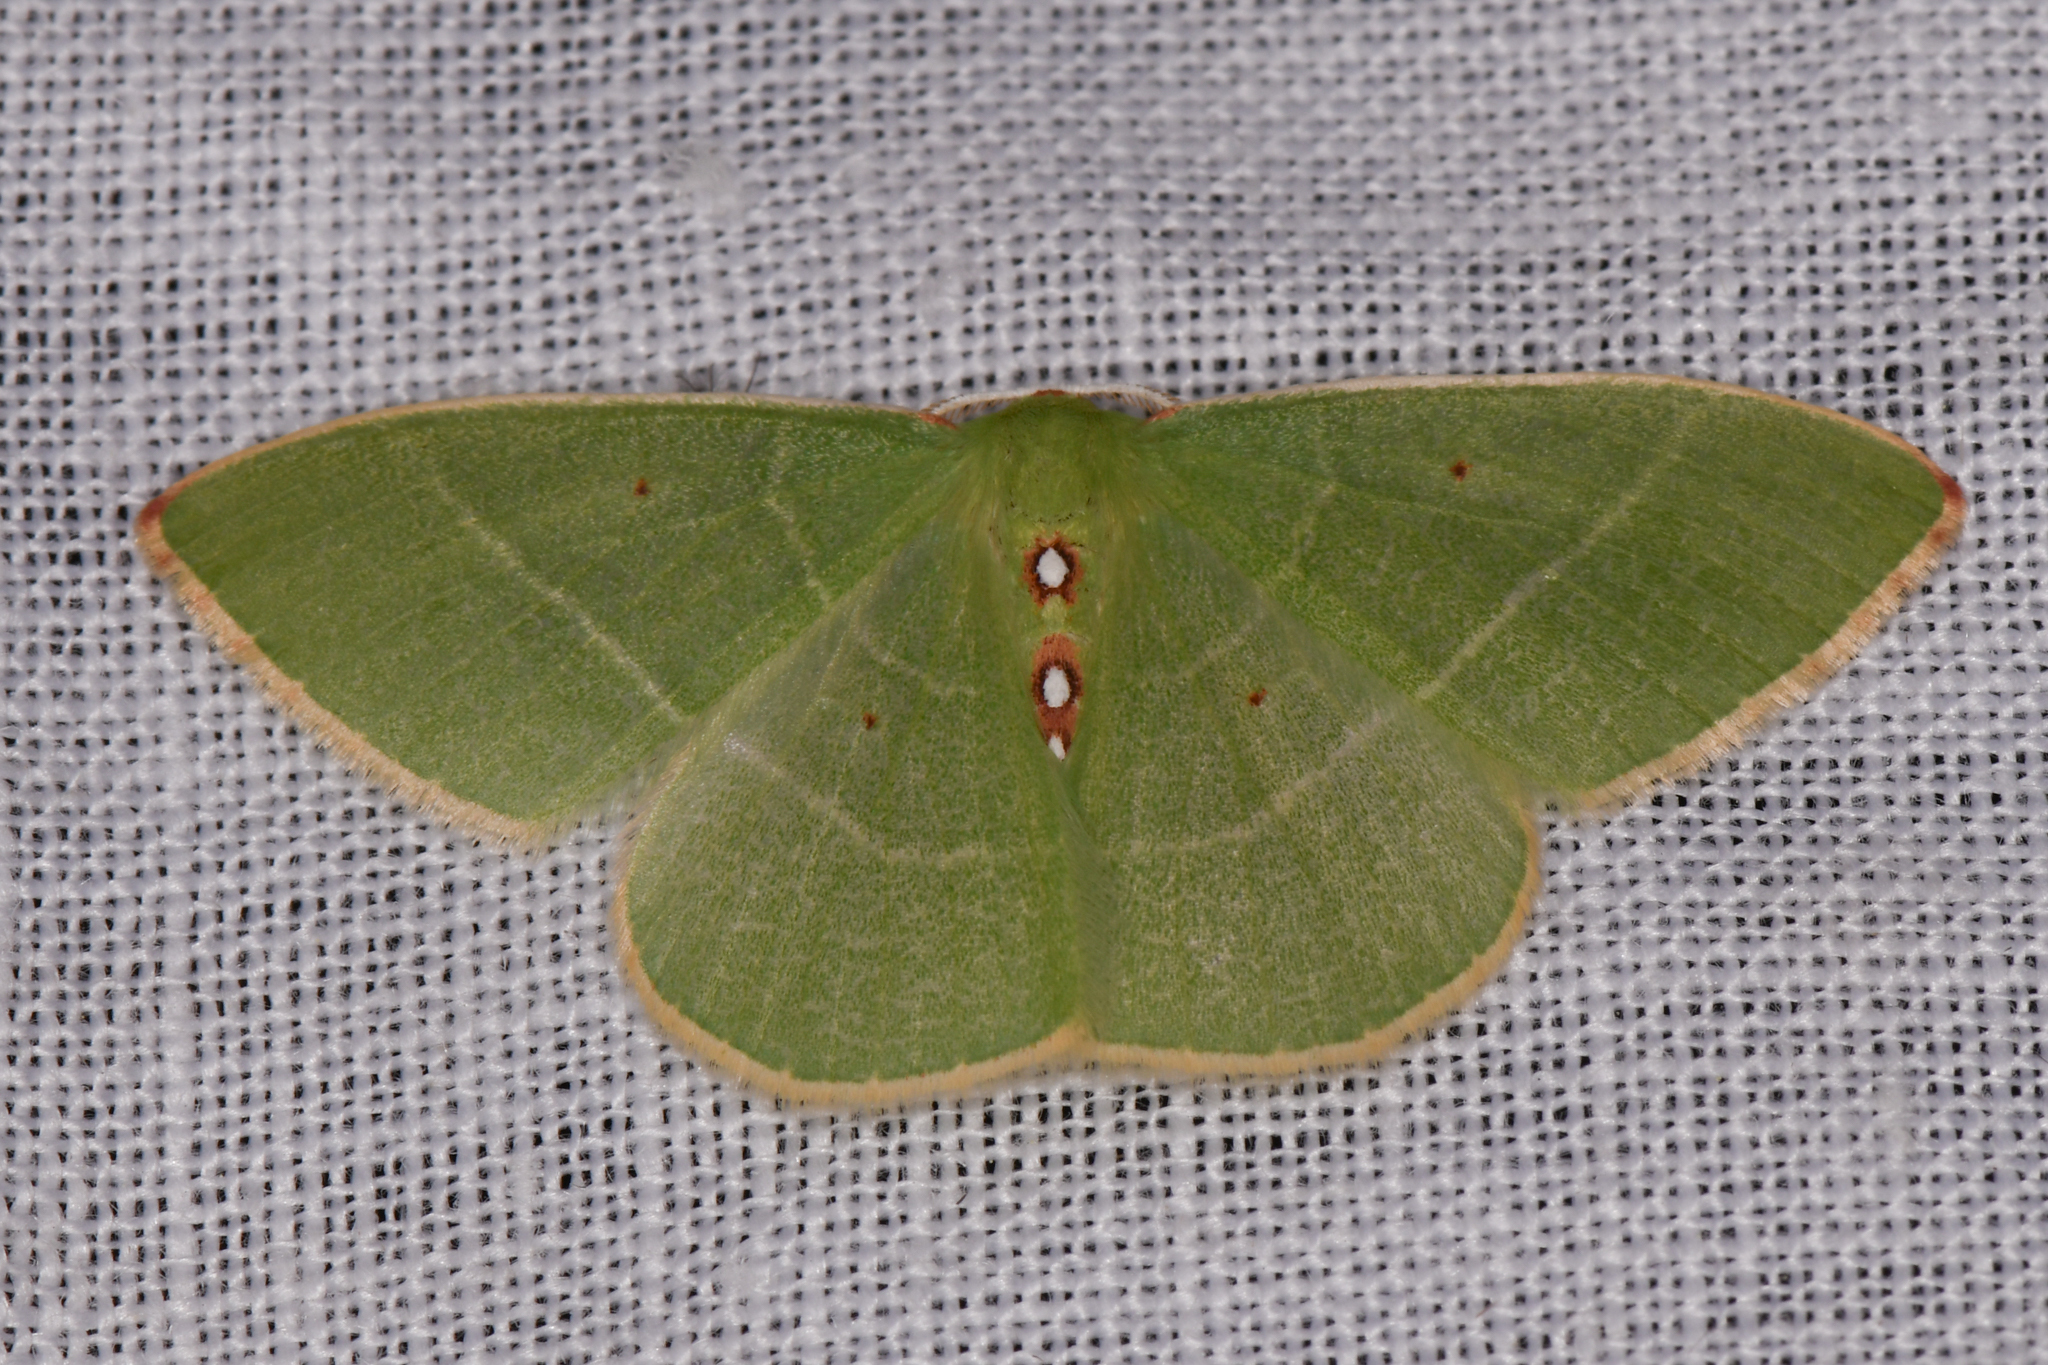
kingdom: Animalia
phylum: Arthropoda
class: Insecta
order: Lepidoptera
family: Geometridae
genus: Nemoria
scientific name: Nemoria darwiniata
